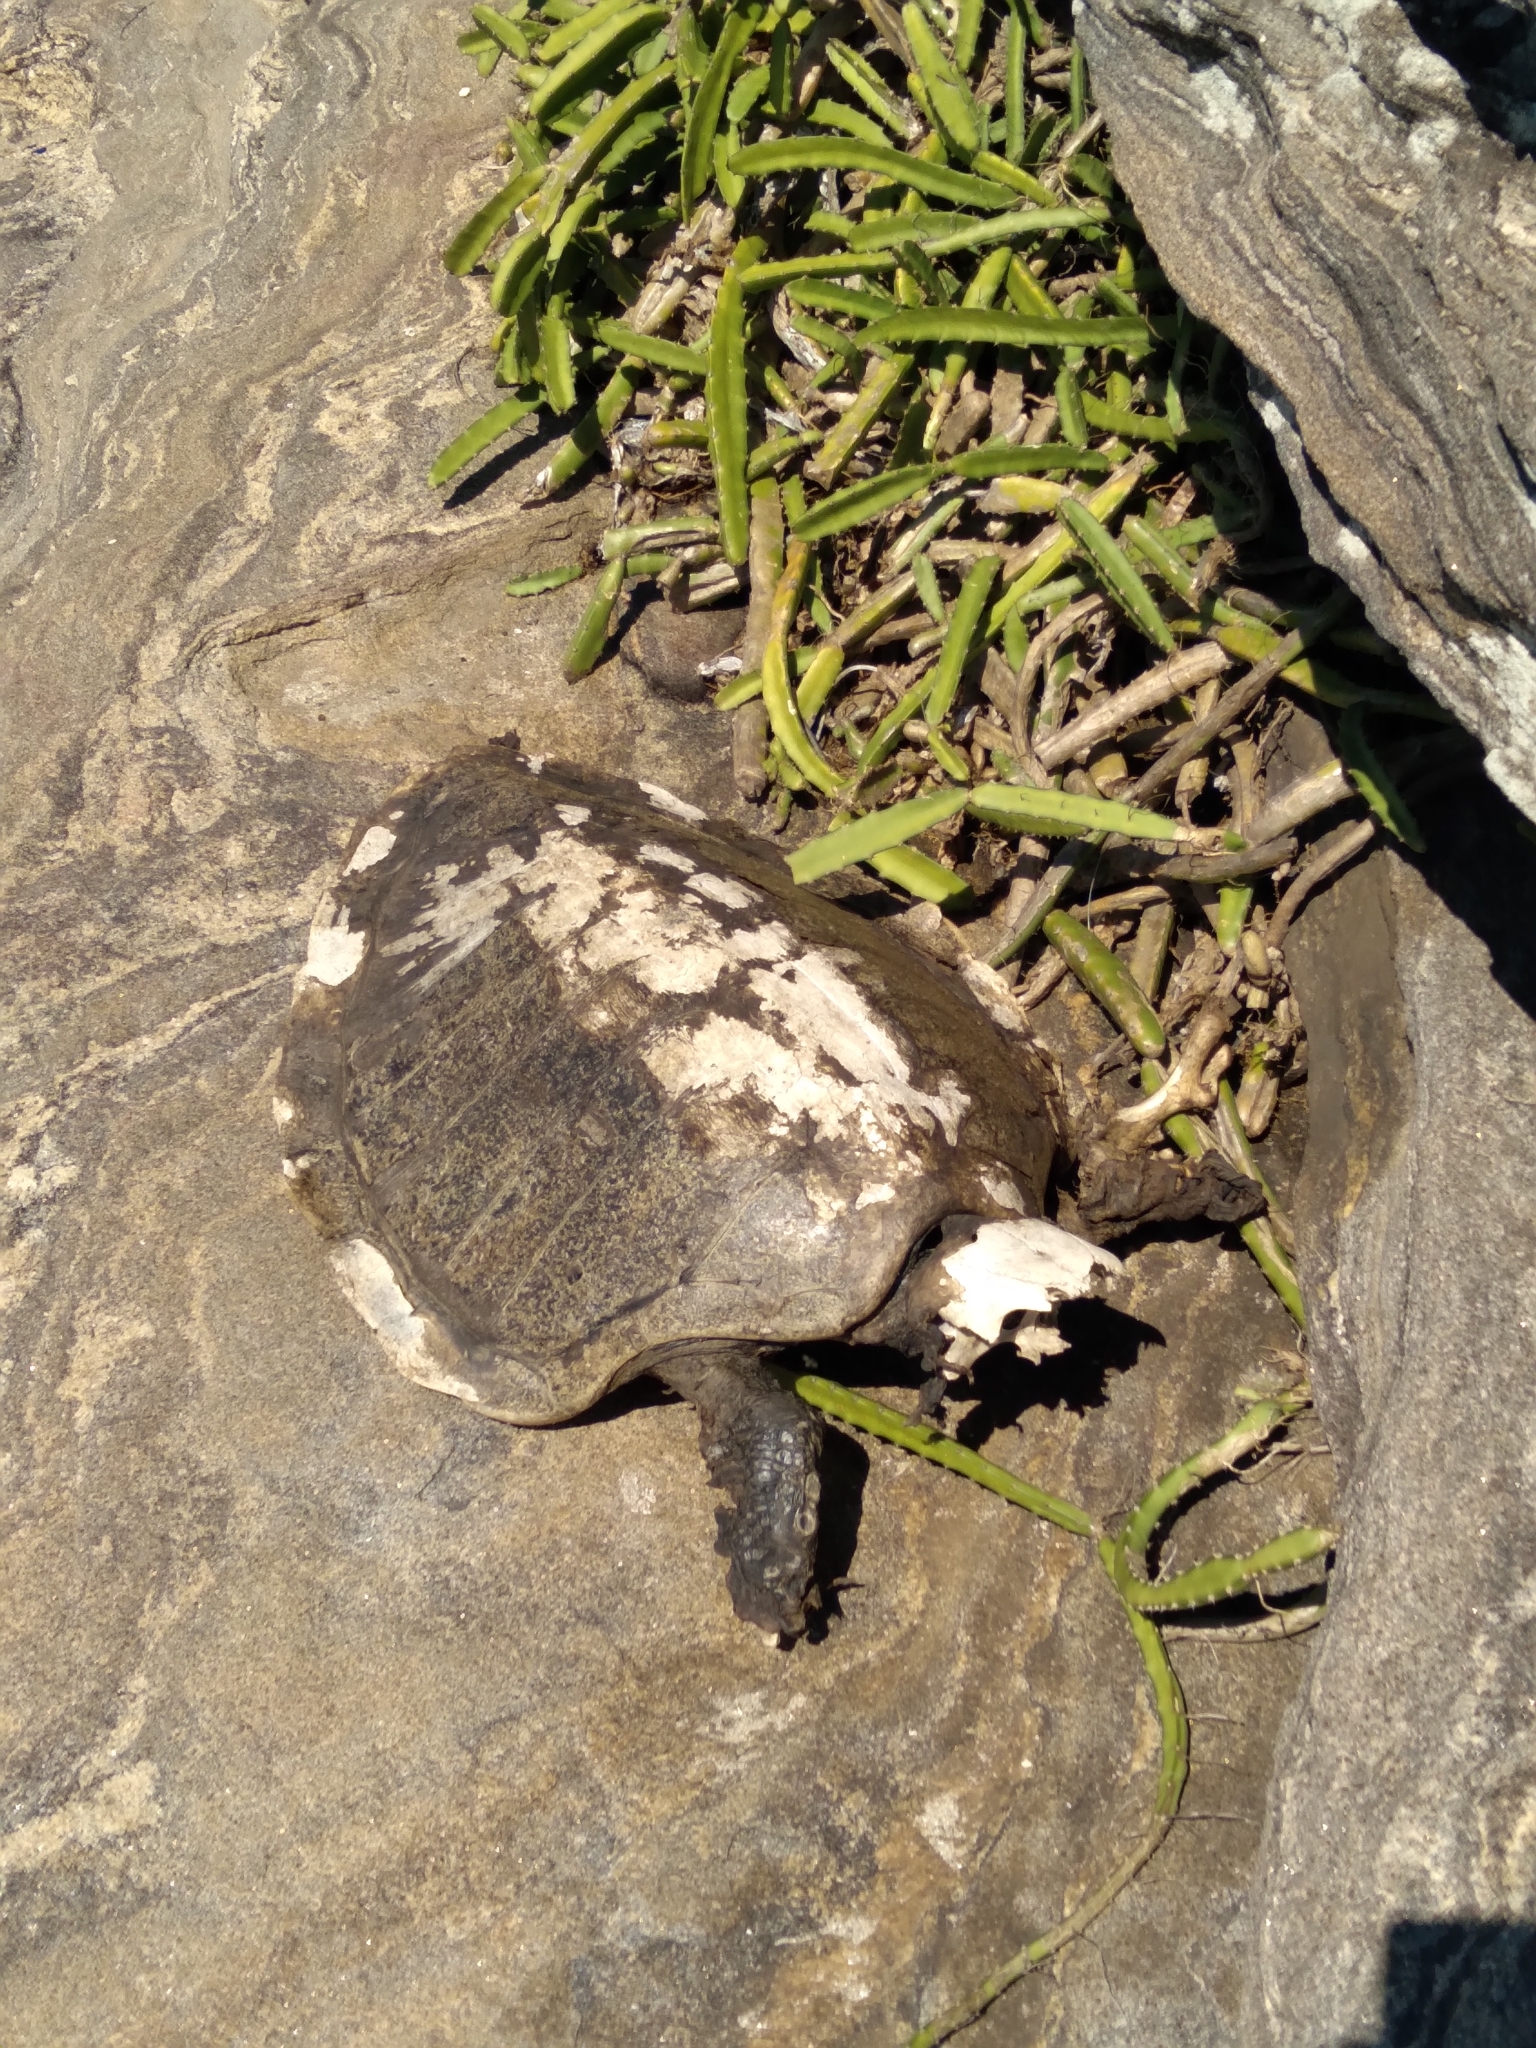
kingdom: Animalia
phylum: Chordata
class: Testudines
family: Cheloniidae
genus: Lepidochelys
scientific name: Lepidochelys olivacea
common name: Olive ridley
